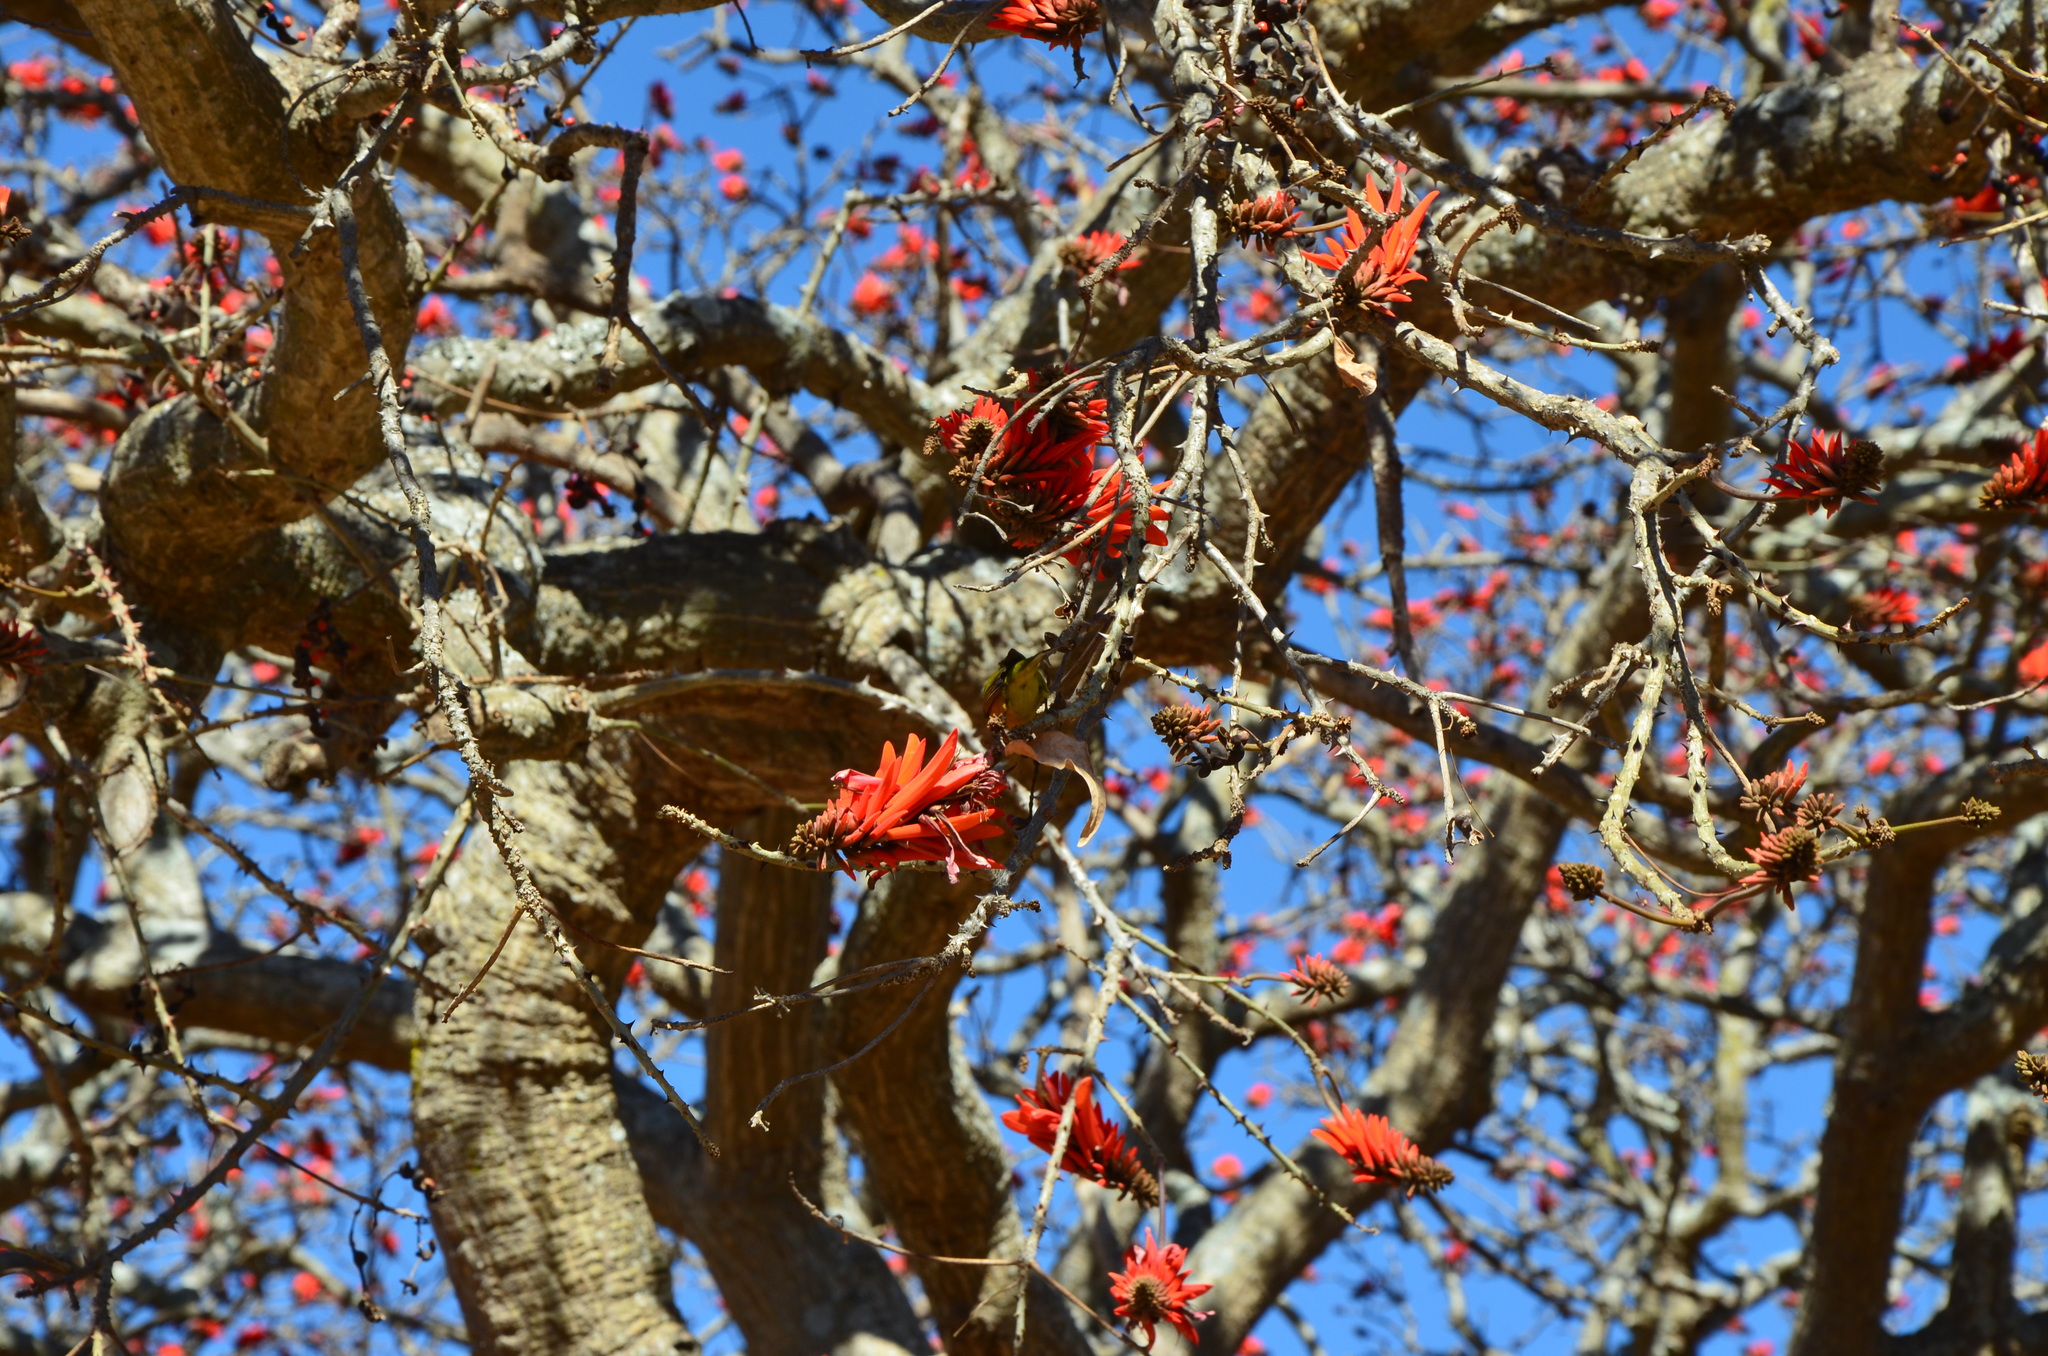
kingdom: Animalia
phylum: Chordata
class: Aves
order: Passeriformes
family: Zosteropidae
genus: Zosterops
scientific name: Zosterops virens
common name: Cape white-eye
